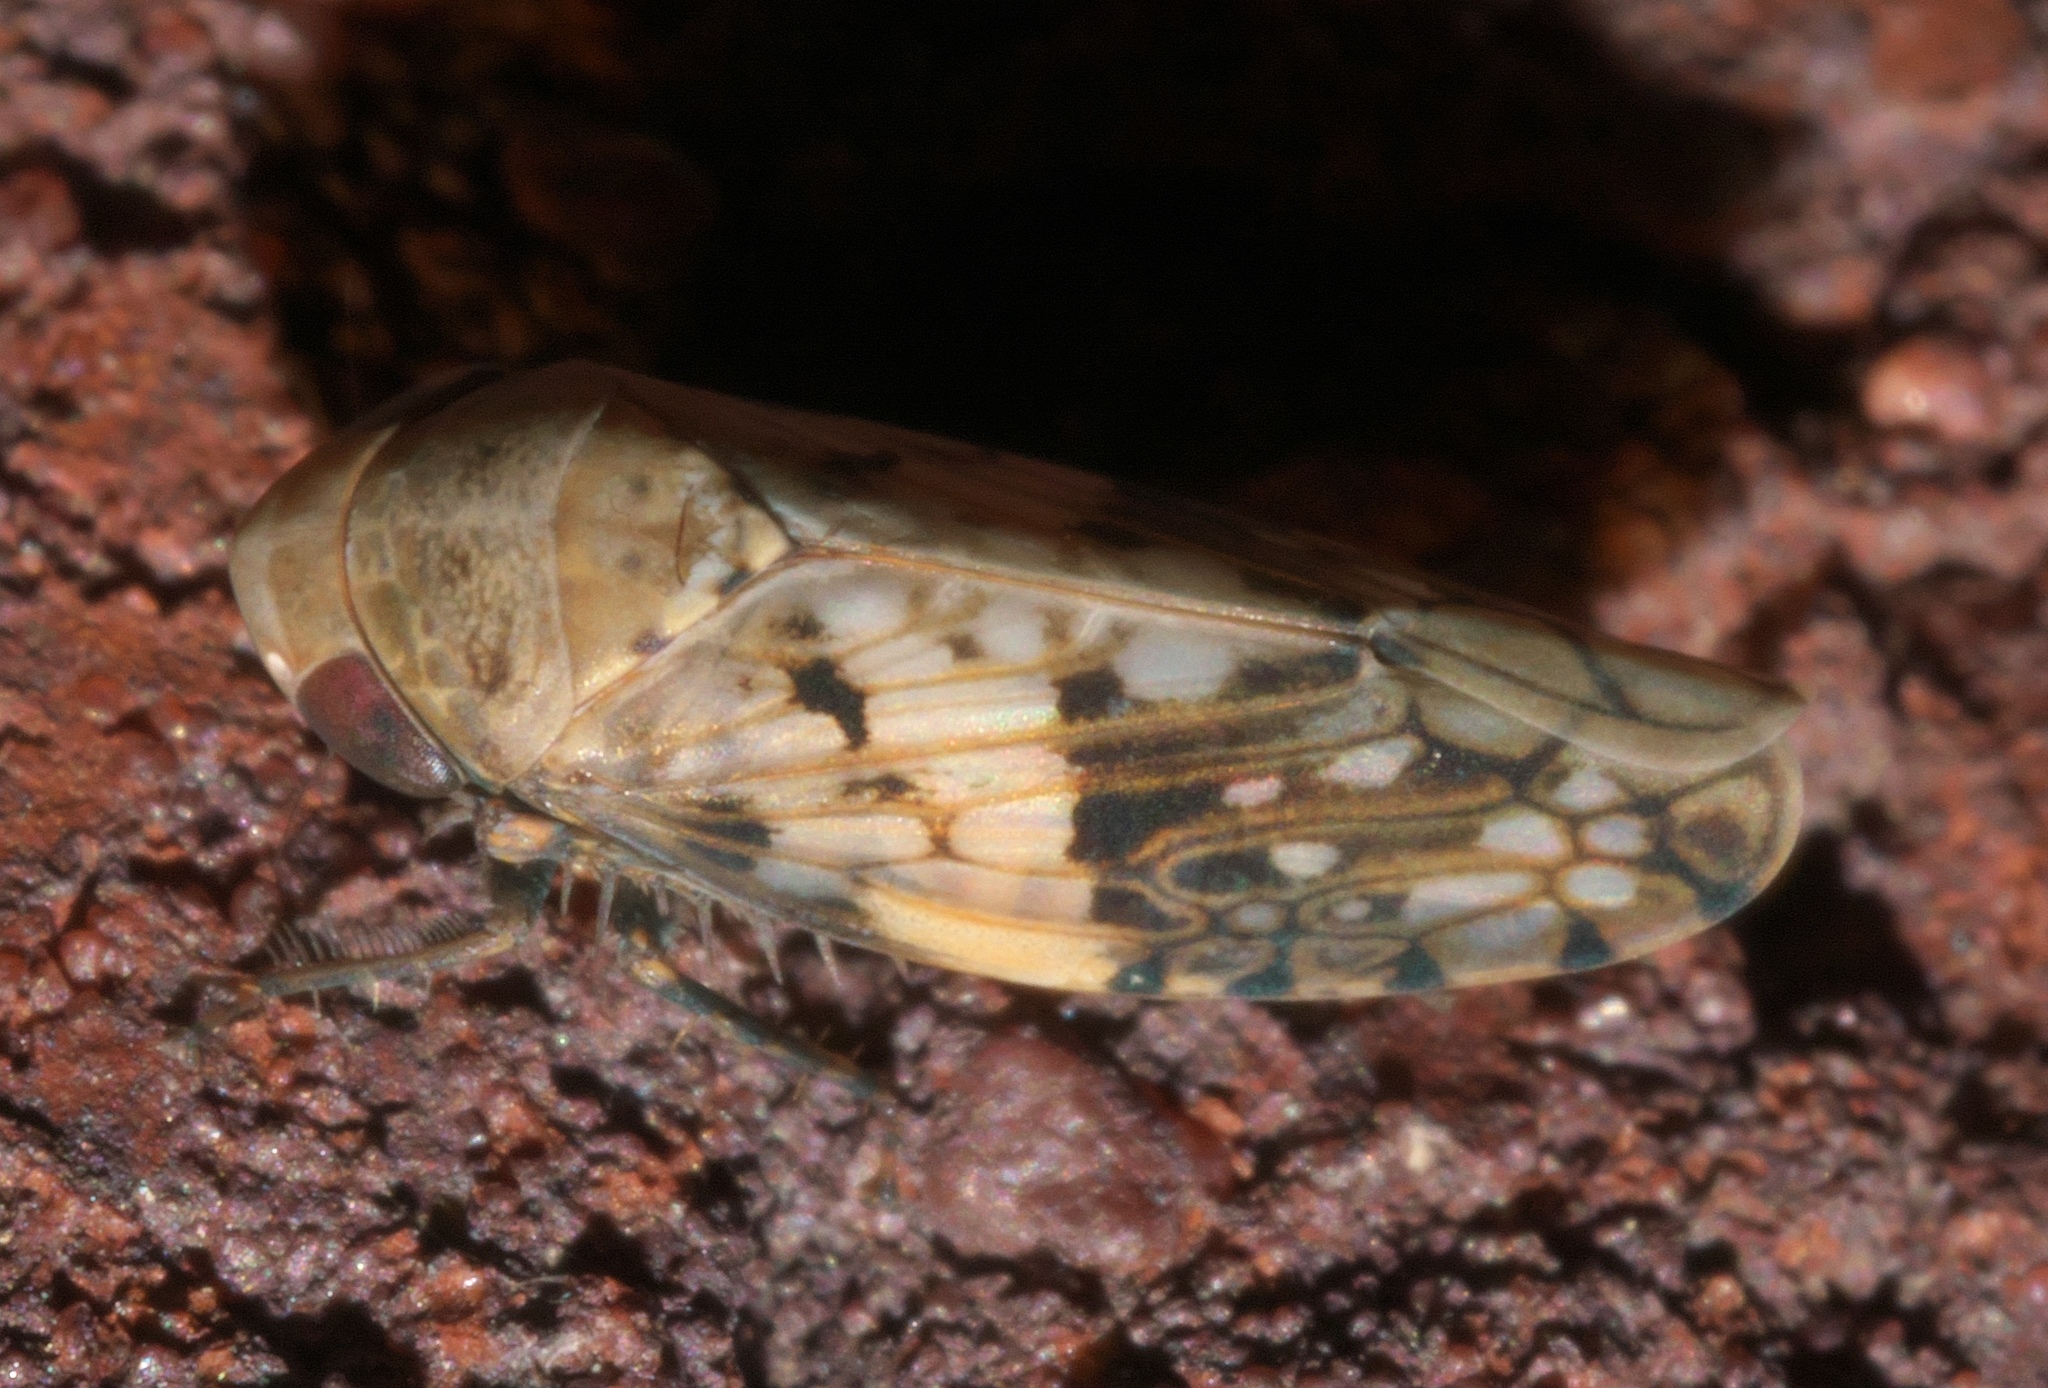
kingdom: Animalia
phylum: Arthropoda
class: Insecta
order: Hemiptera
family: Cicadellidae
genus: Menosoma
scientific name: Menosoma cinctum
